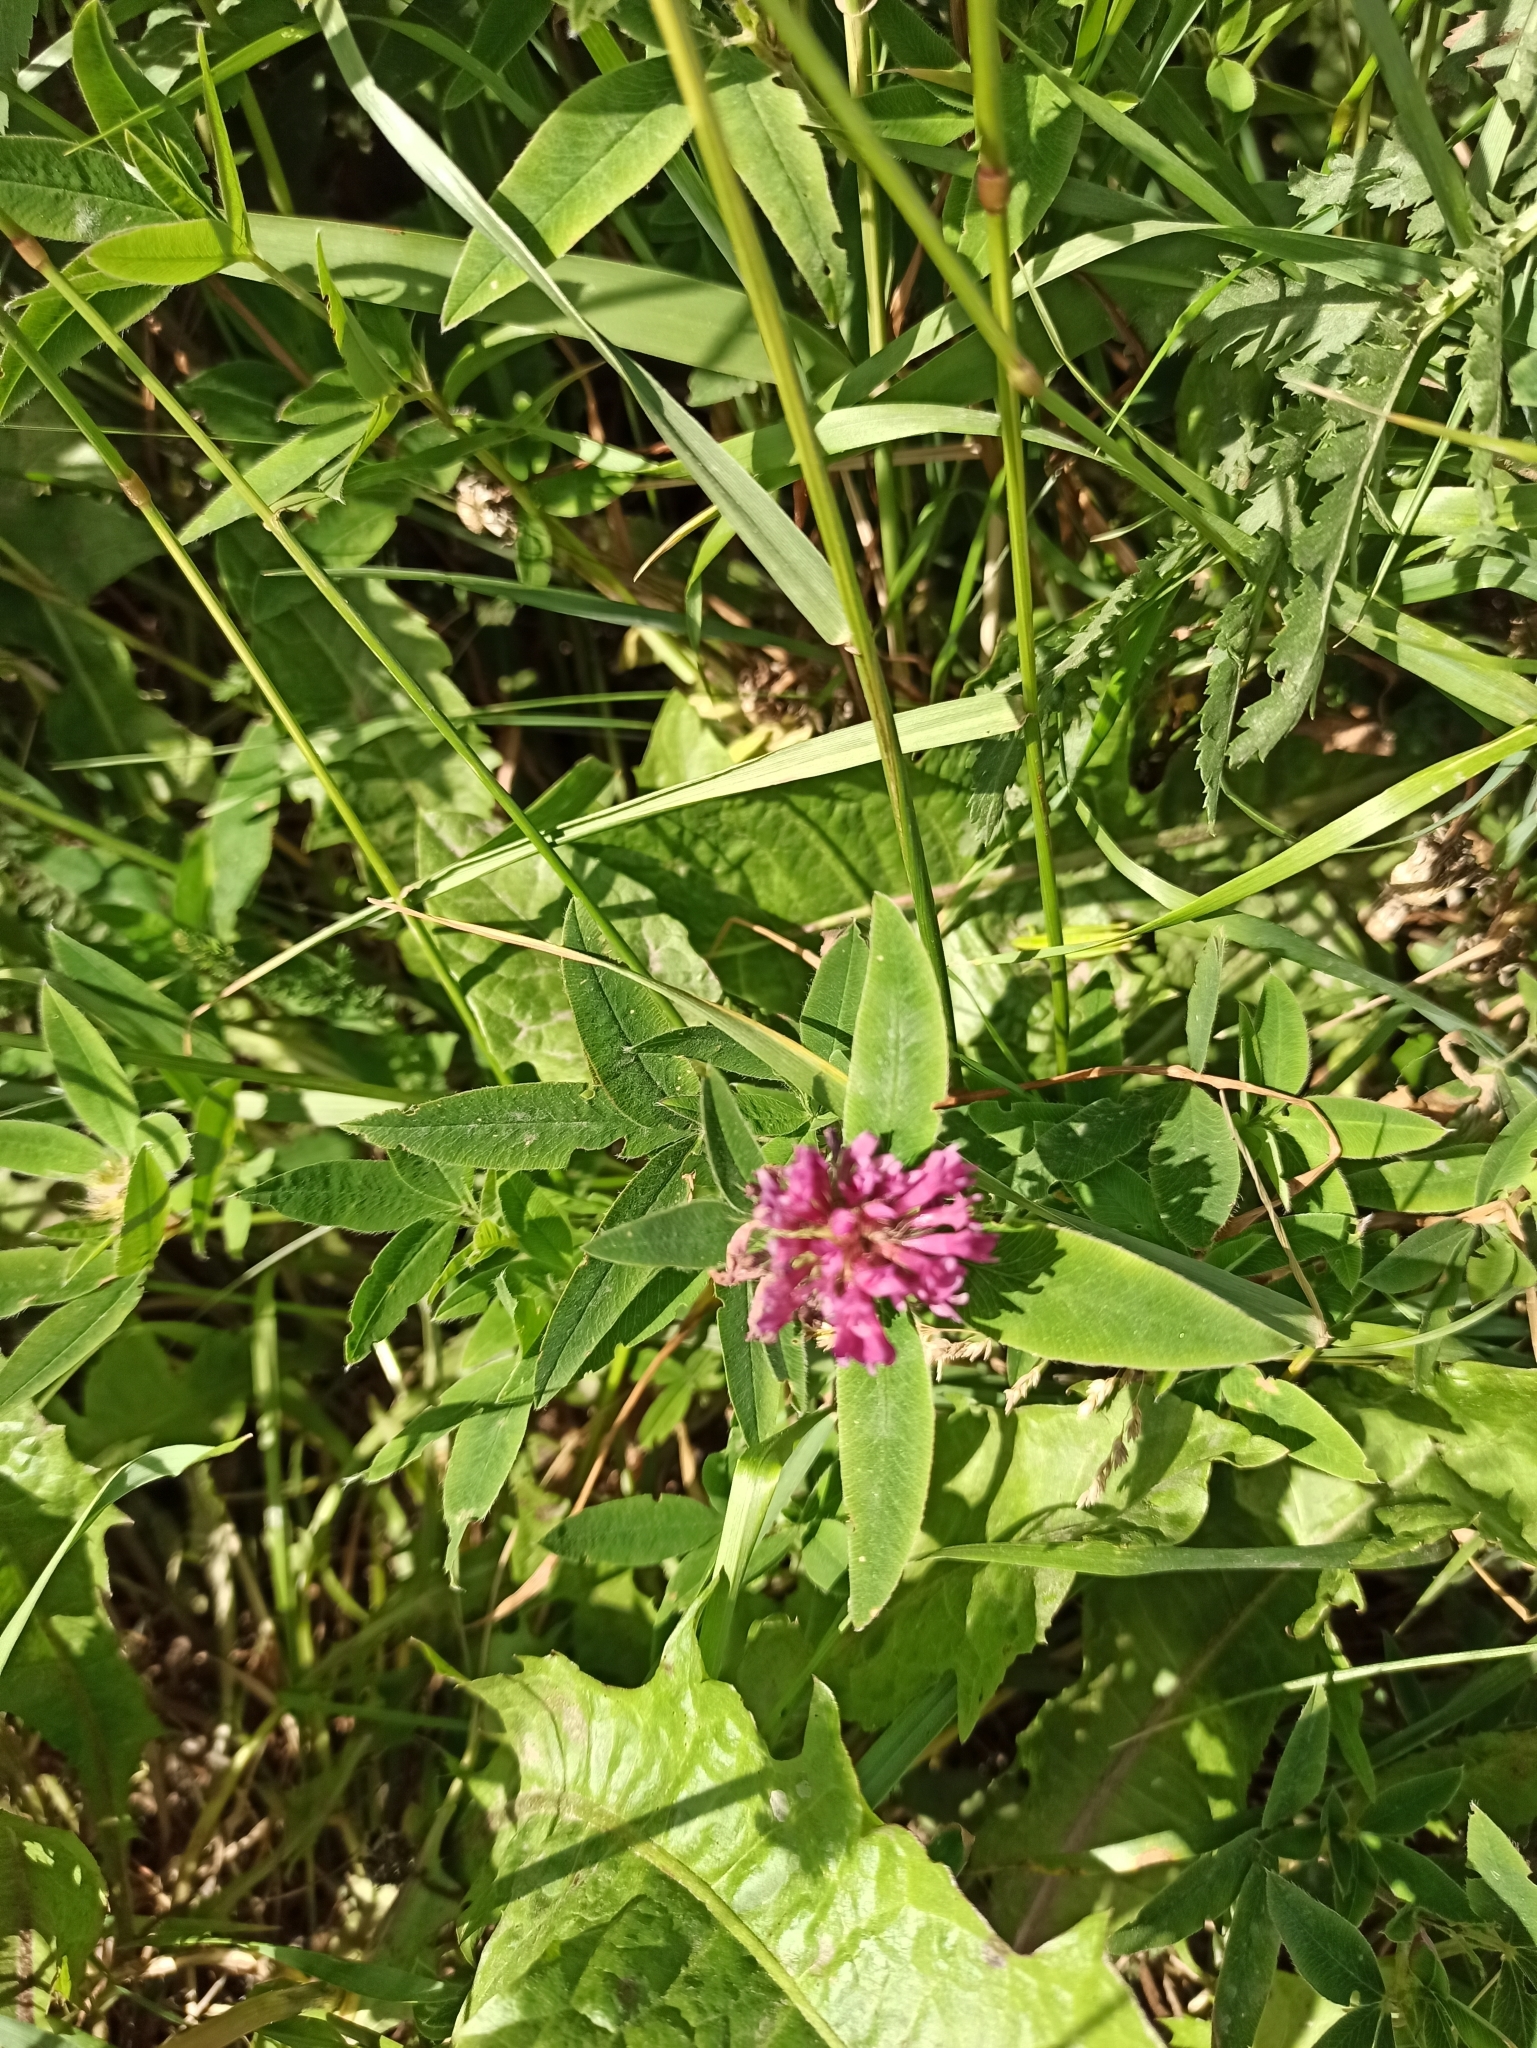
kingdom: Plantae
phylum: Tracheophyta
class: Magnoliopsida
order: Fabales
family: Fabaceae
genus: Trifolium
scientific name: Trifolium medium
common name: Zigzag clover
